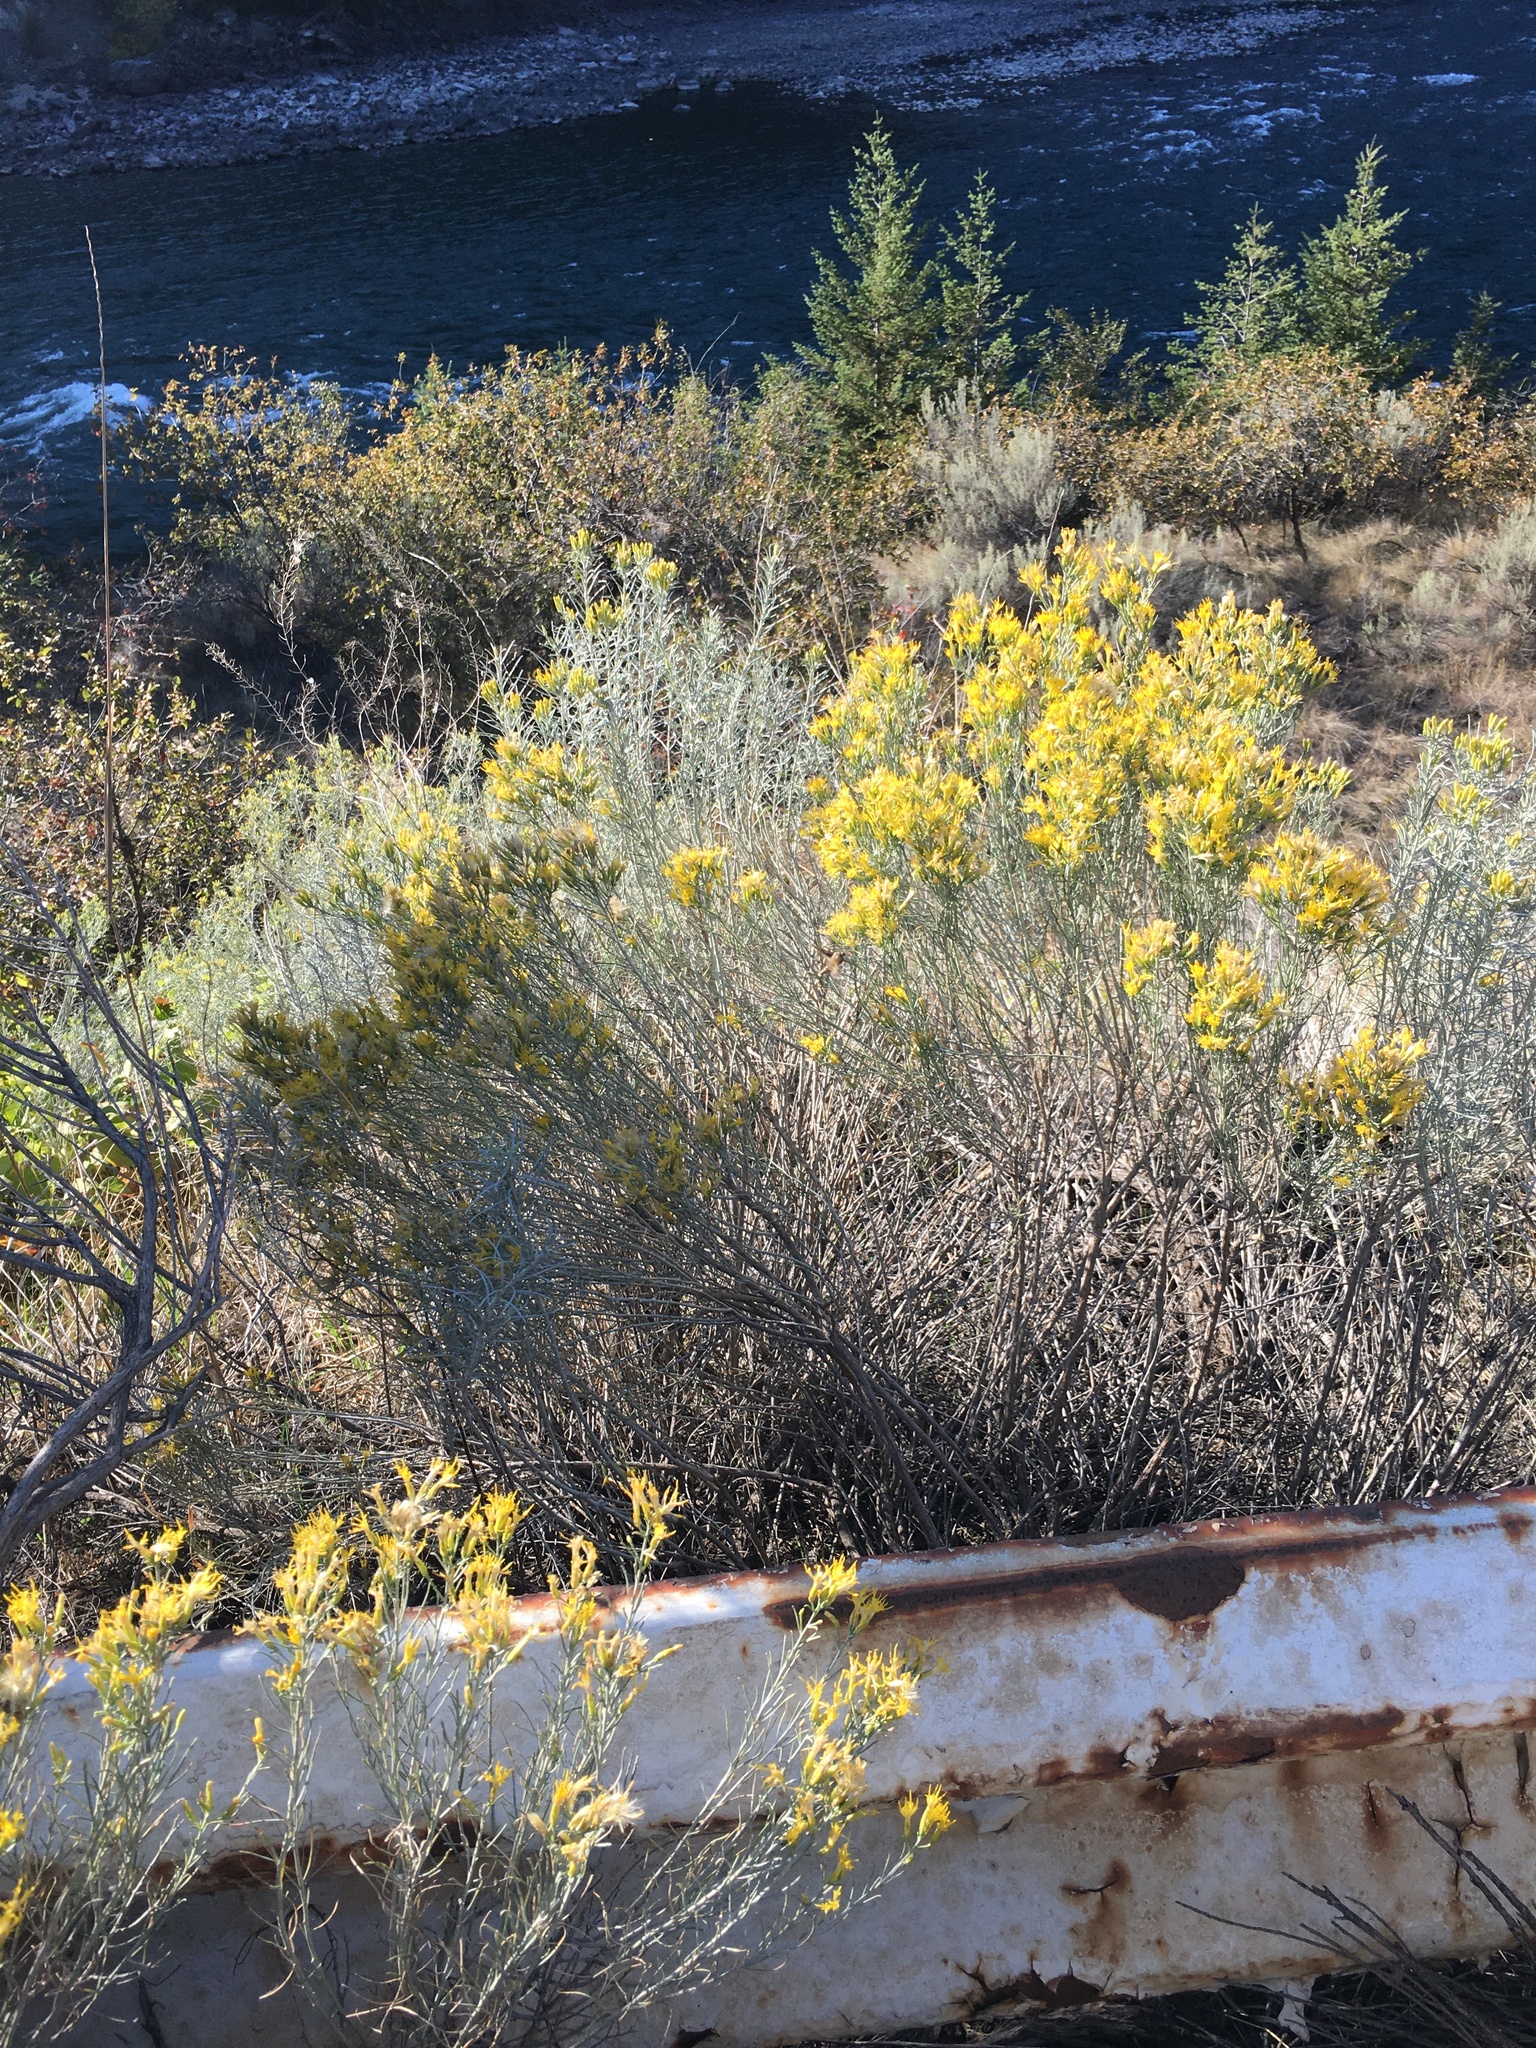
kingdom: Plantae
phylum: Tracheophyta
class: Magnoliopsida
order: Asterales
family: Asteraceae
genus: Ericameria
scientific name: Ericameria nauseosa
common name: Rubber rabbitbrush
